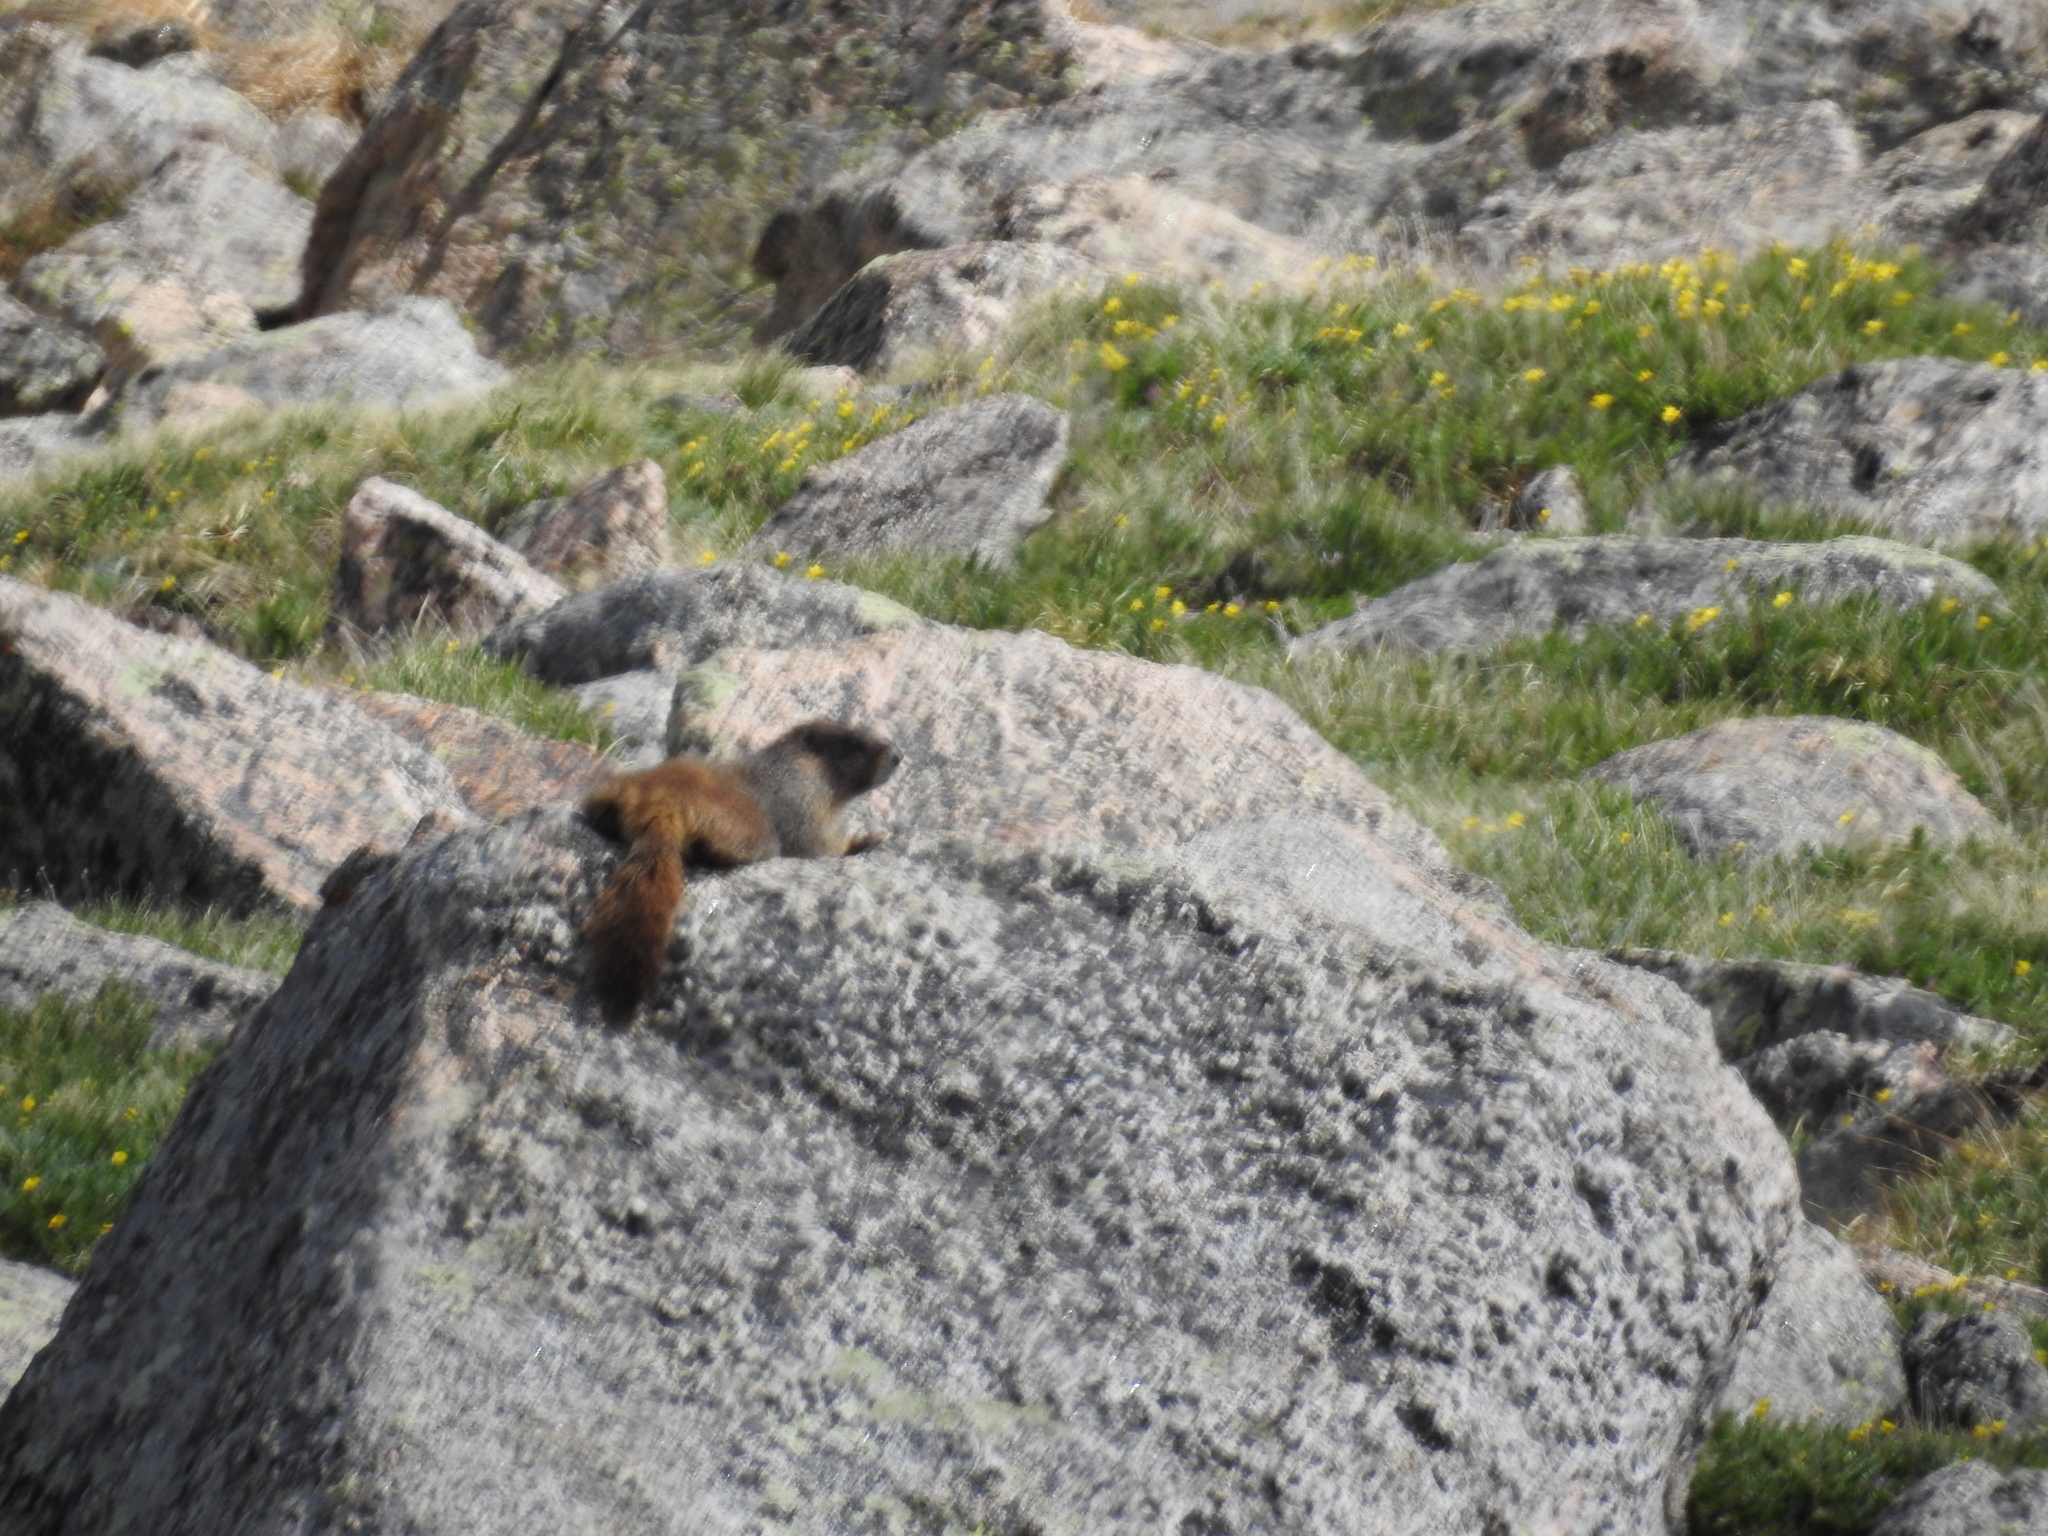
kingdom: Animalia
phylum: Chordata
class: Mammalia
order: Rodentia
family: Sciuridae
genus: Marmota
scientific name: Marmota flaviventris
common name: Yellow-bellied marmot
